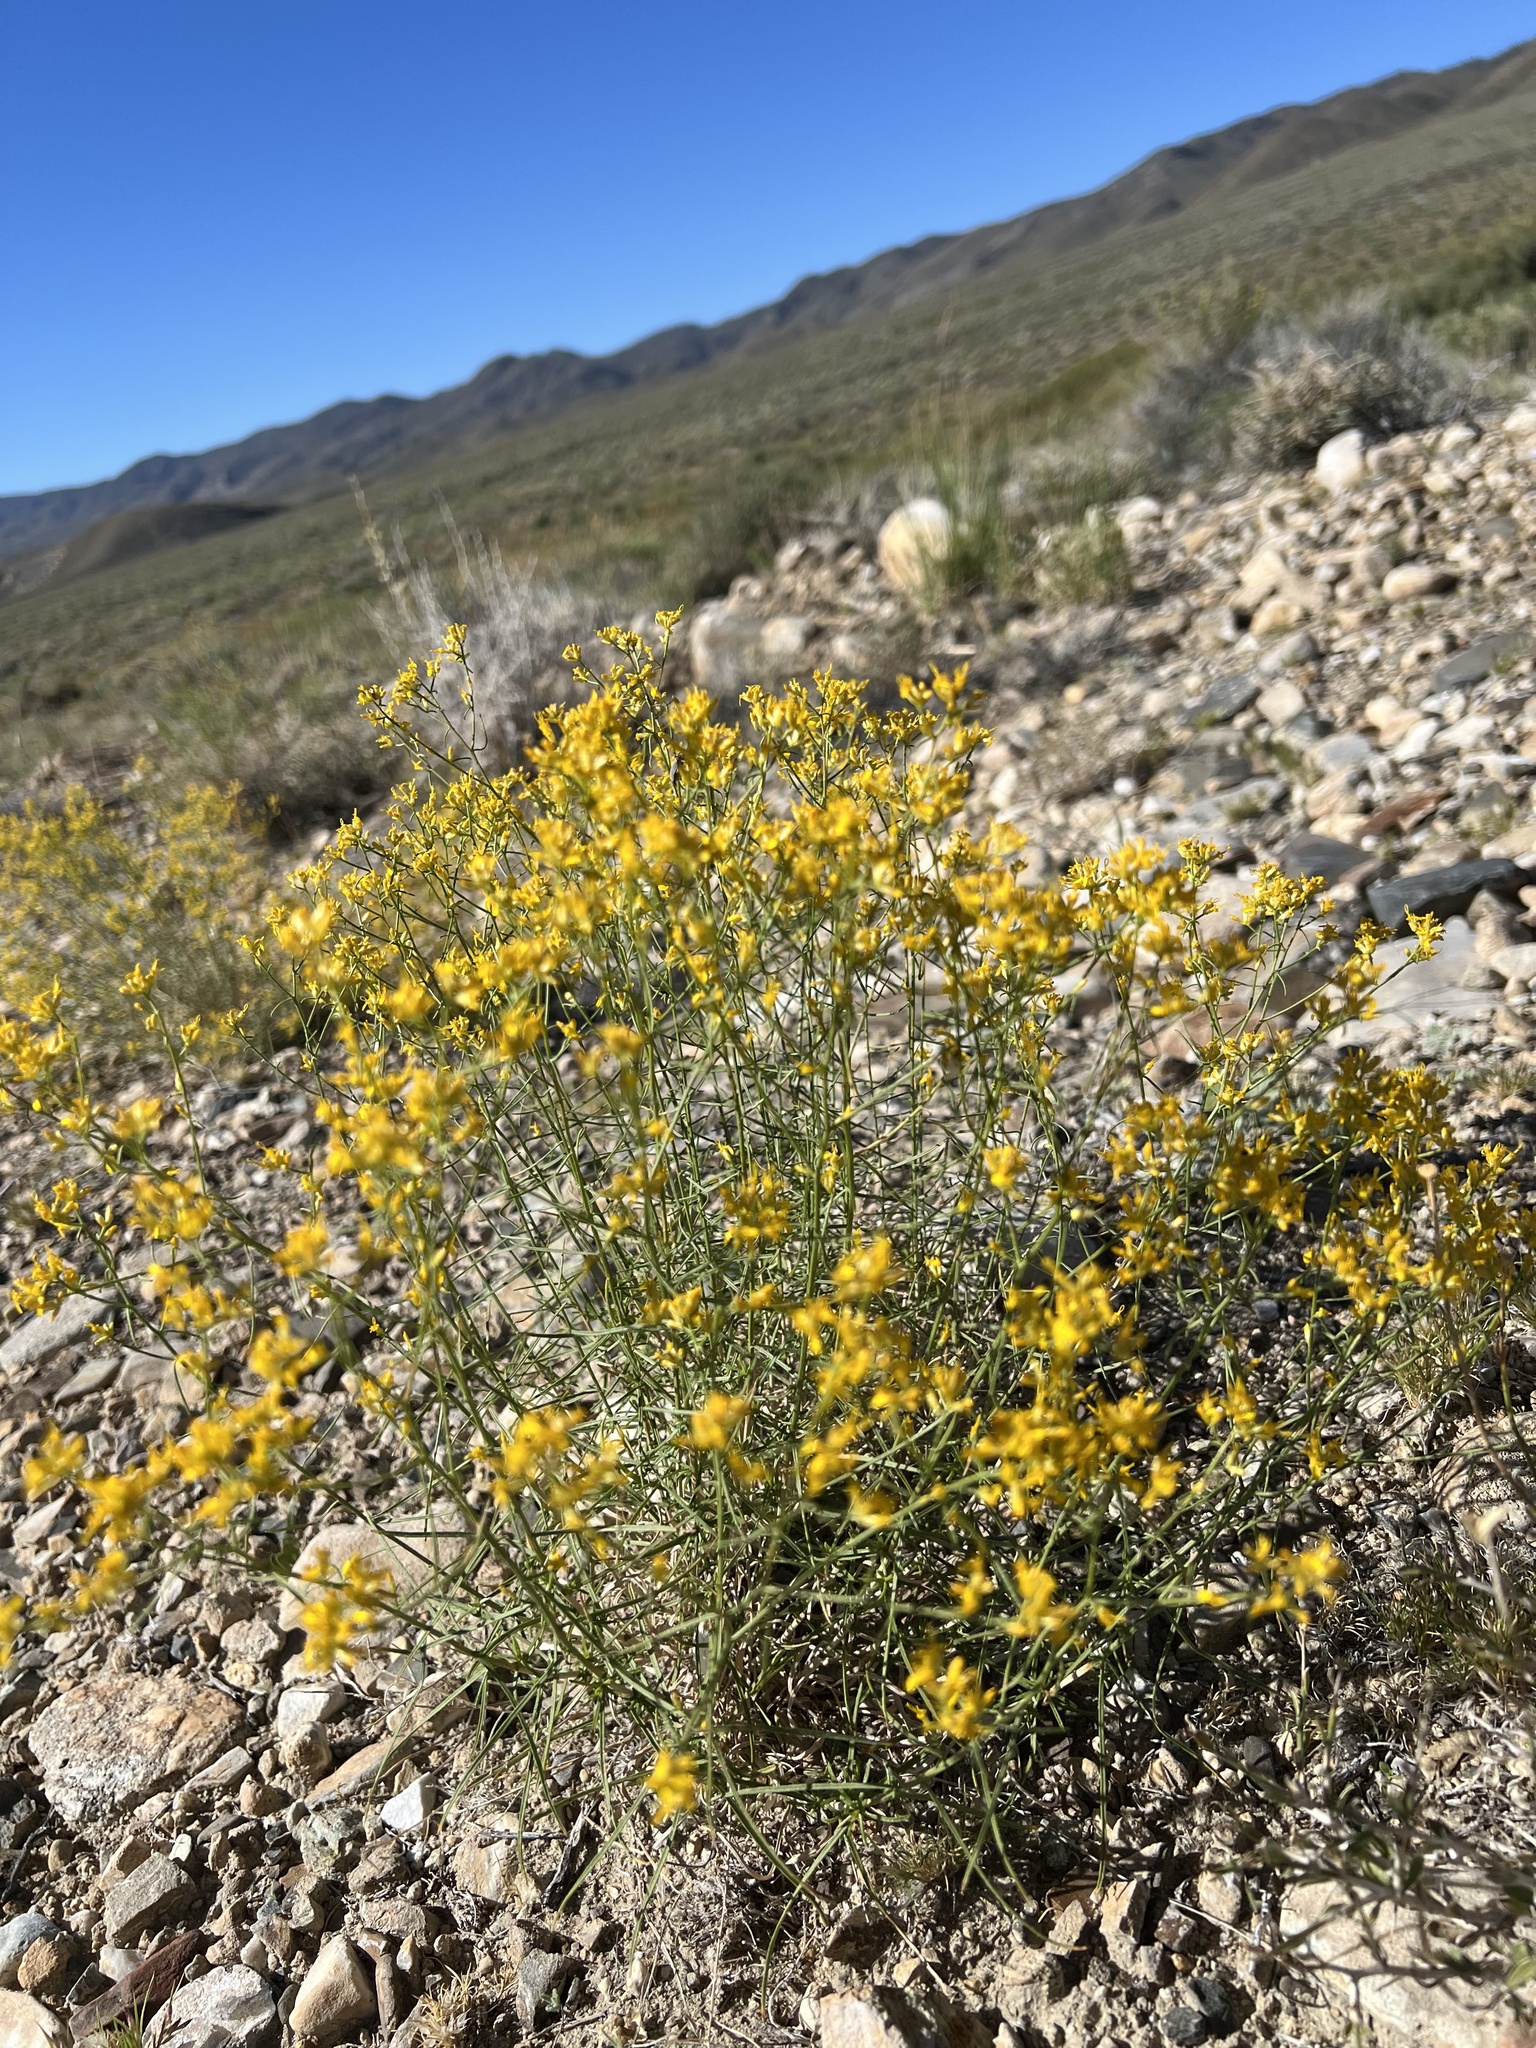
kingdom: Plantae
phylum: Tracheophyta
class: Magnoliopsida
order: Asterales
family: Asteraceae
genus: Gutierrezia
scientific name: Gutierrezia microcephala
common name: Thread snakeweed
